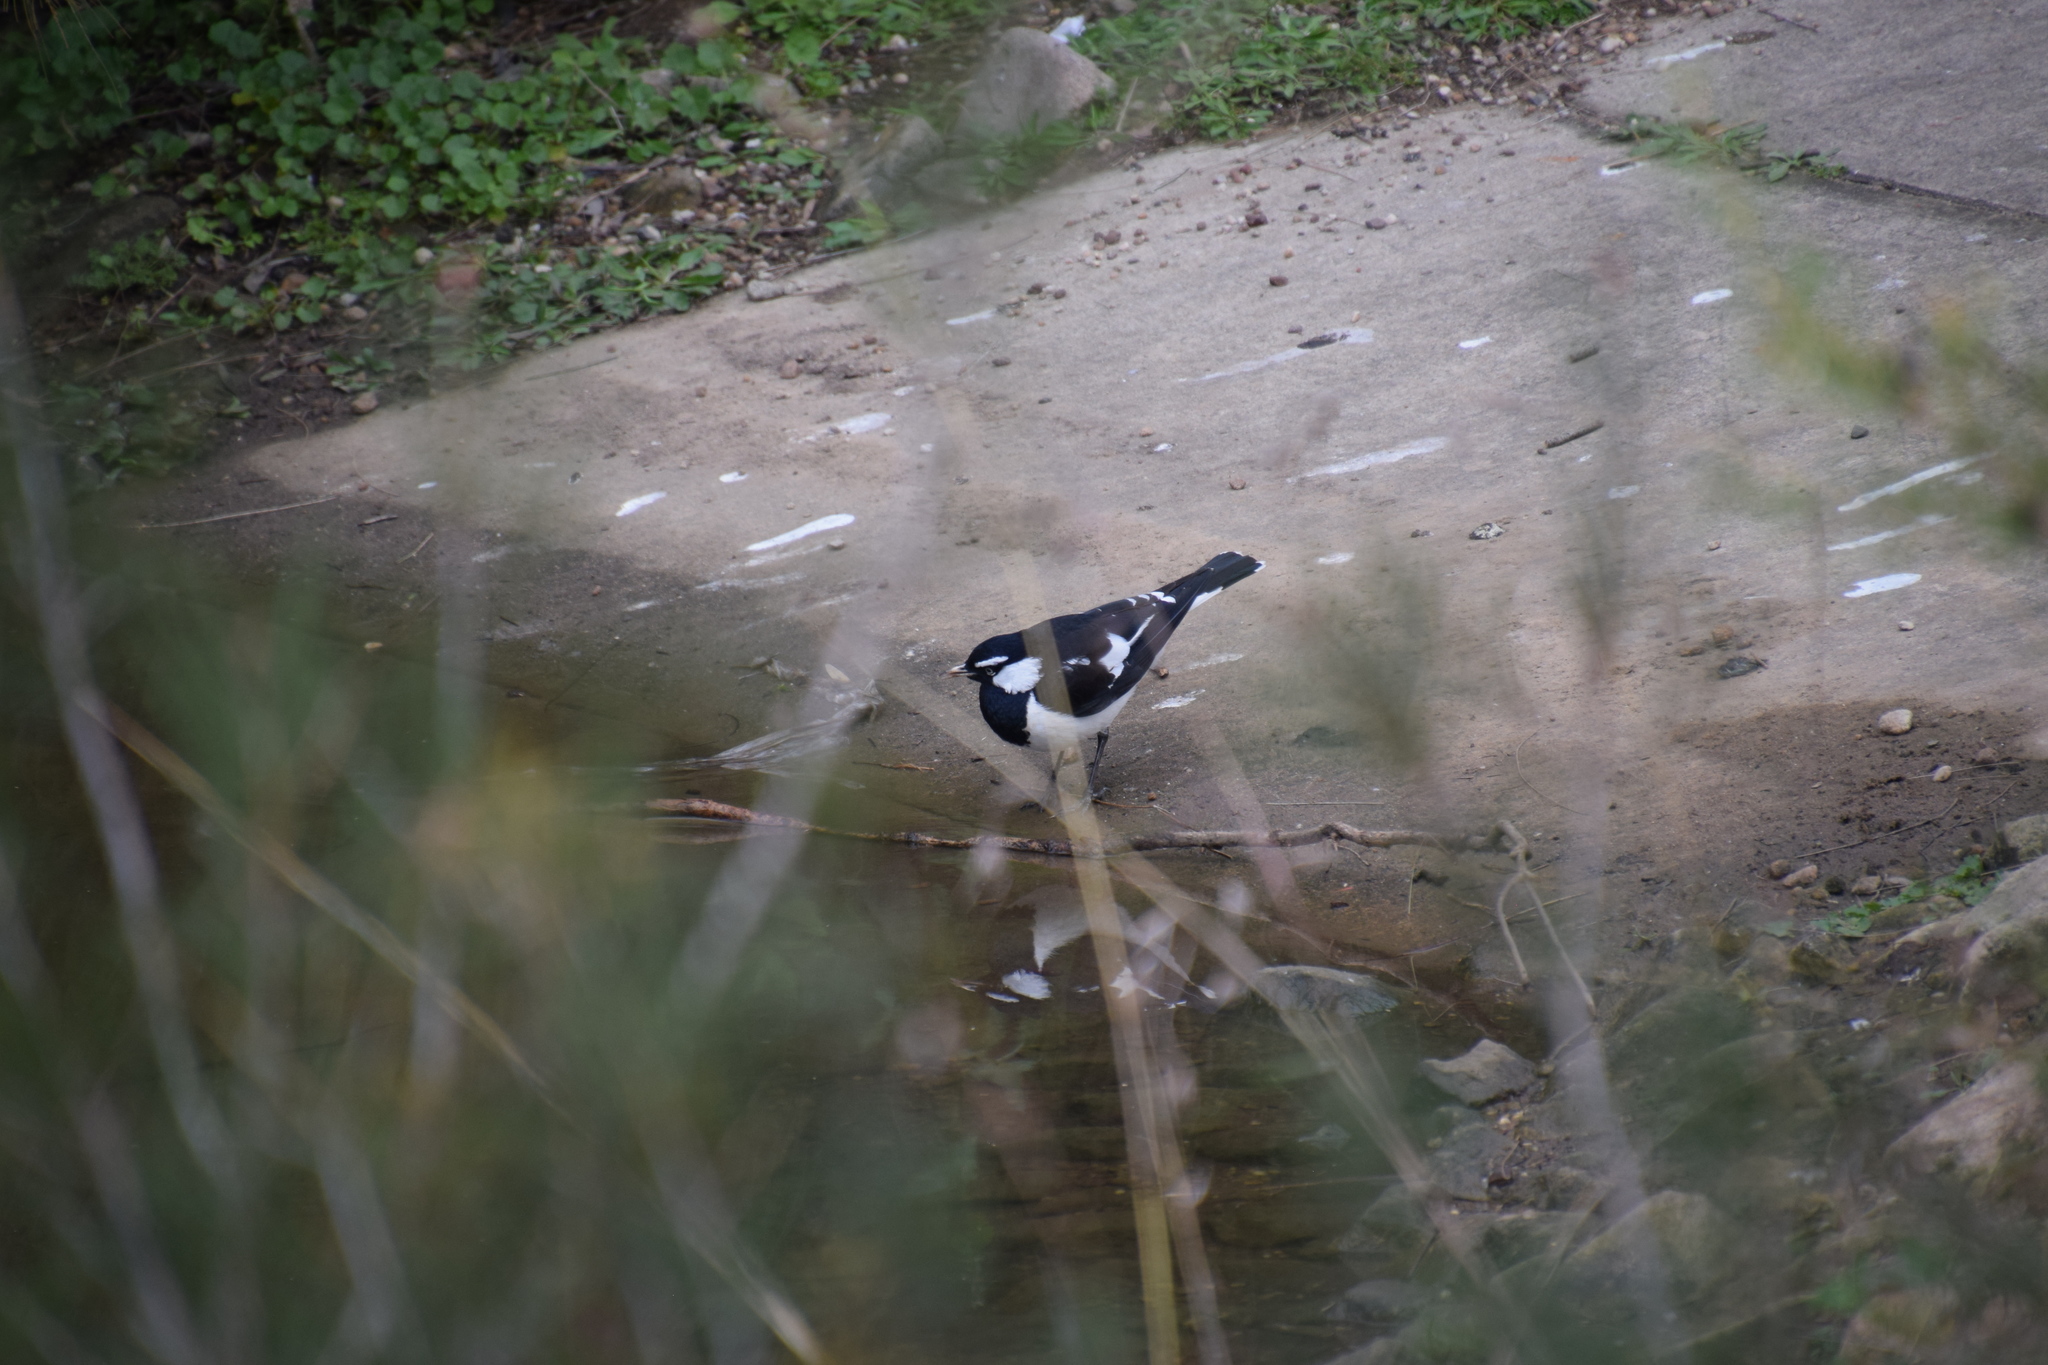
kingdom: Animalia
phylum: Chordata
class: Aves
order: Passeriformes
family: Monarchidae
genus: Grallina
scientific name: Grallina cyanoleuca
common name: Magpie-lark
